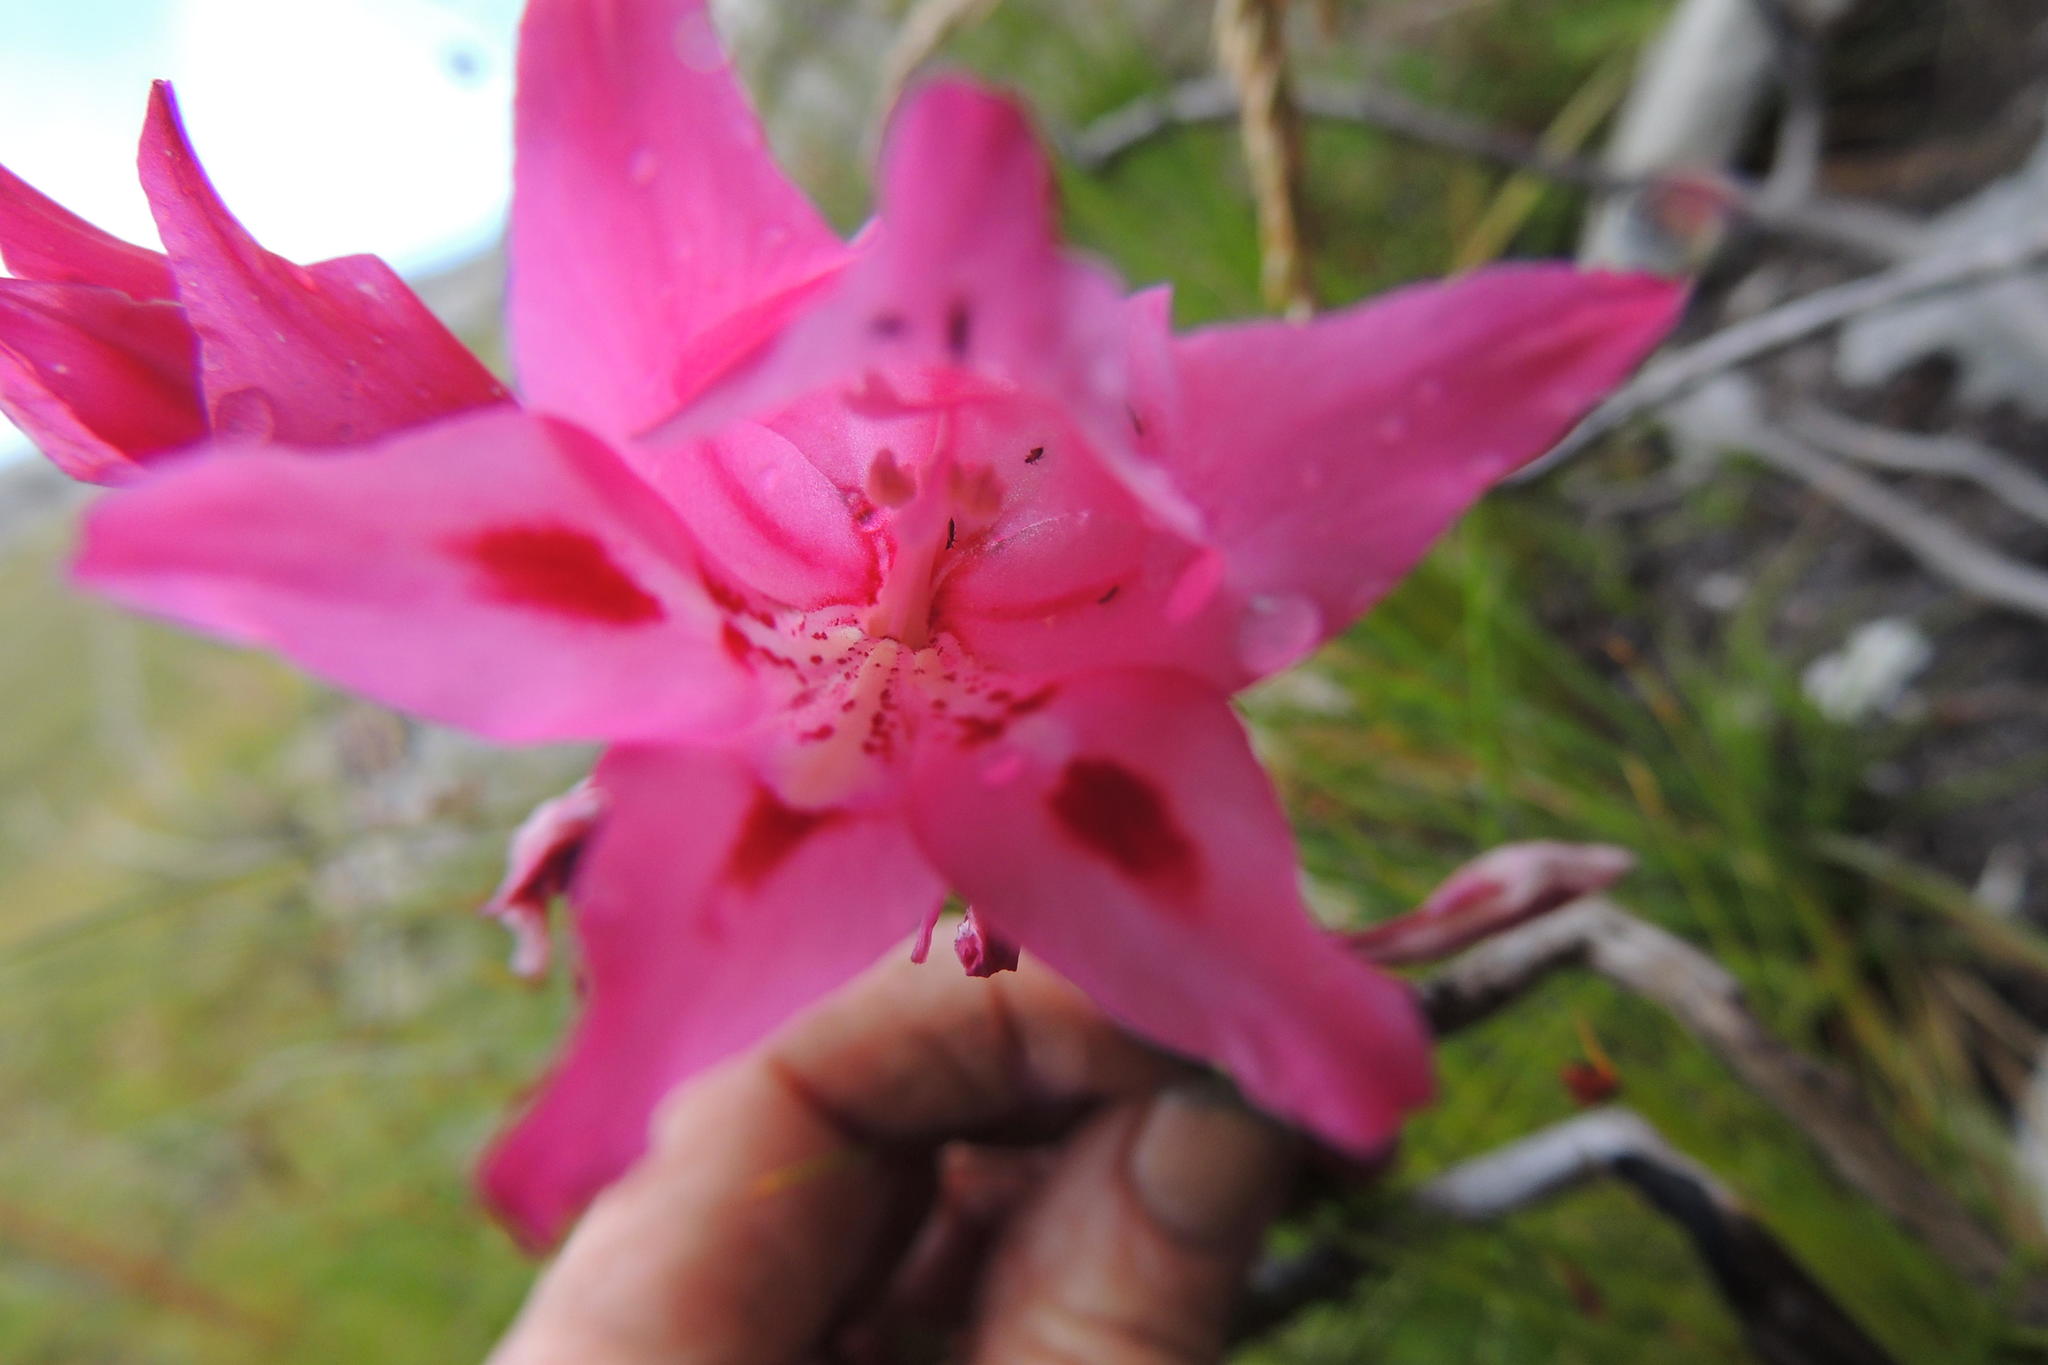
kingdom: Plantae
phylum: Tracheophyta
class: Liliopsida
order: Asparagales
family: Iridaceae
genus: Gladiolus
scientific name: Gladiolus crispulatus
